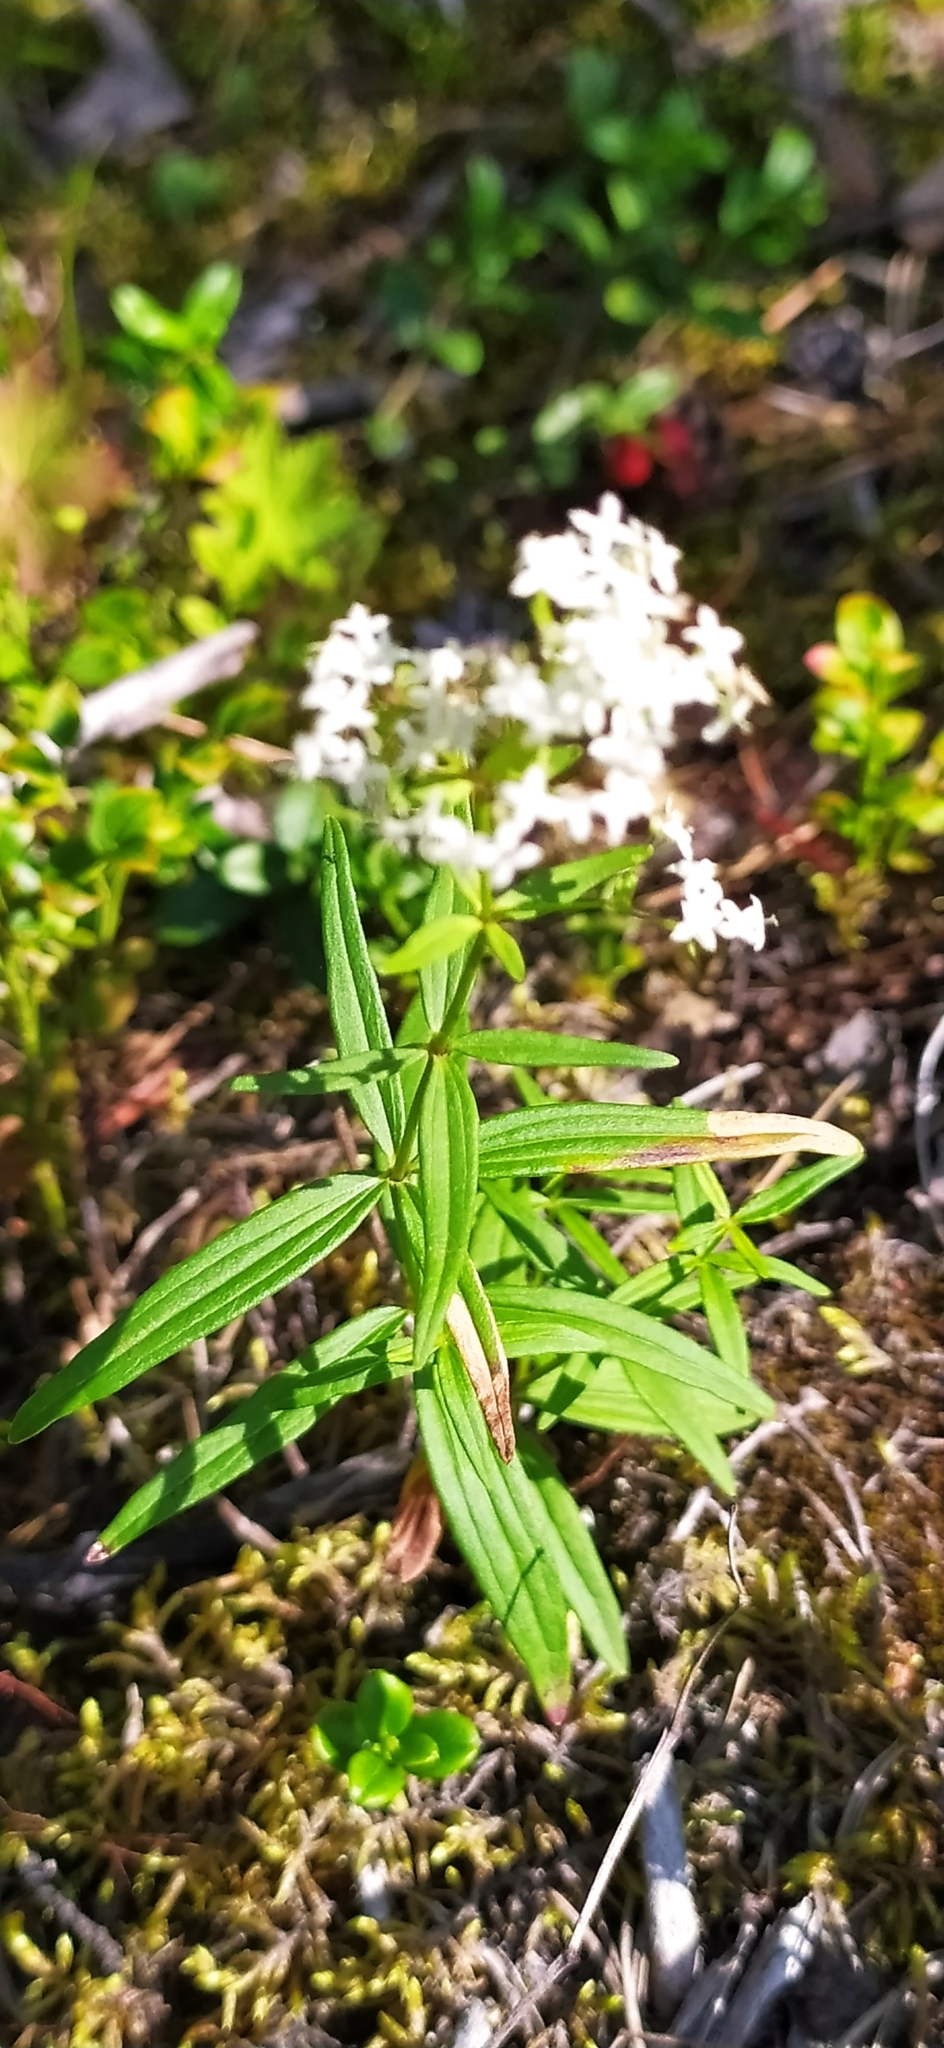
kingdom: Plantae
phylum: Tracheophyta
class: Magnoliopsida
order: Gentianales
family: Rubiaceae
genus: Galium
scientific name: Galium boreale
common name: Northern bedstraw
